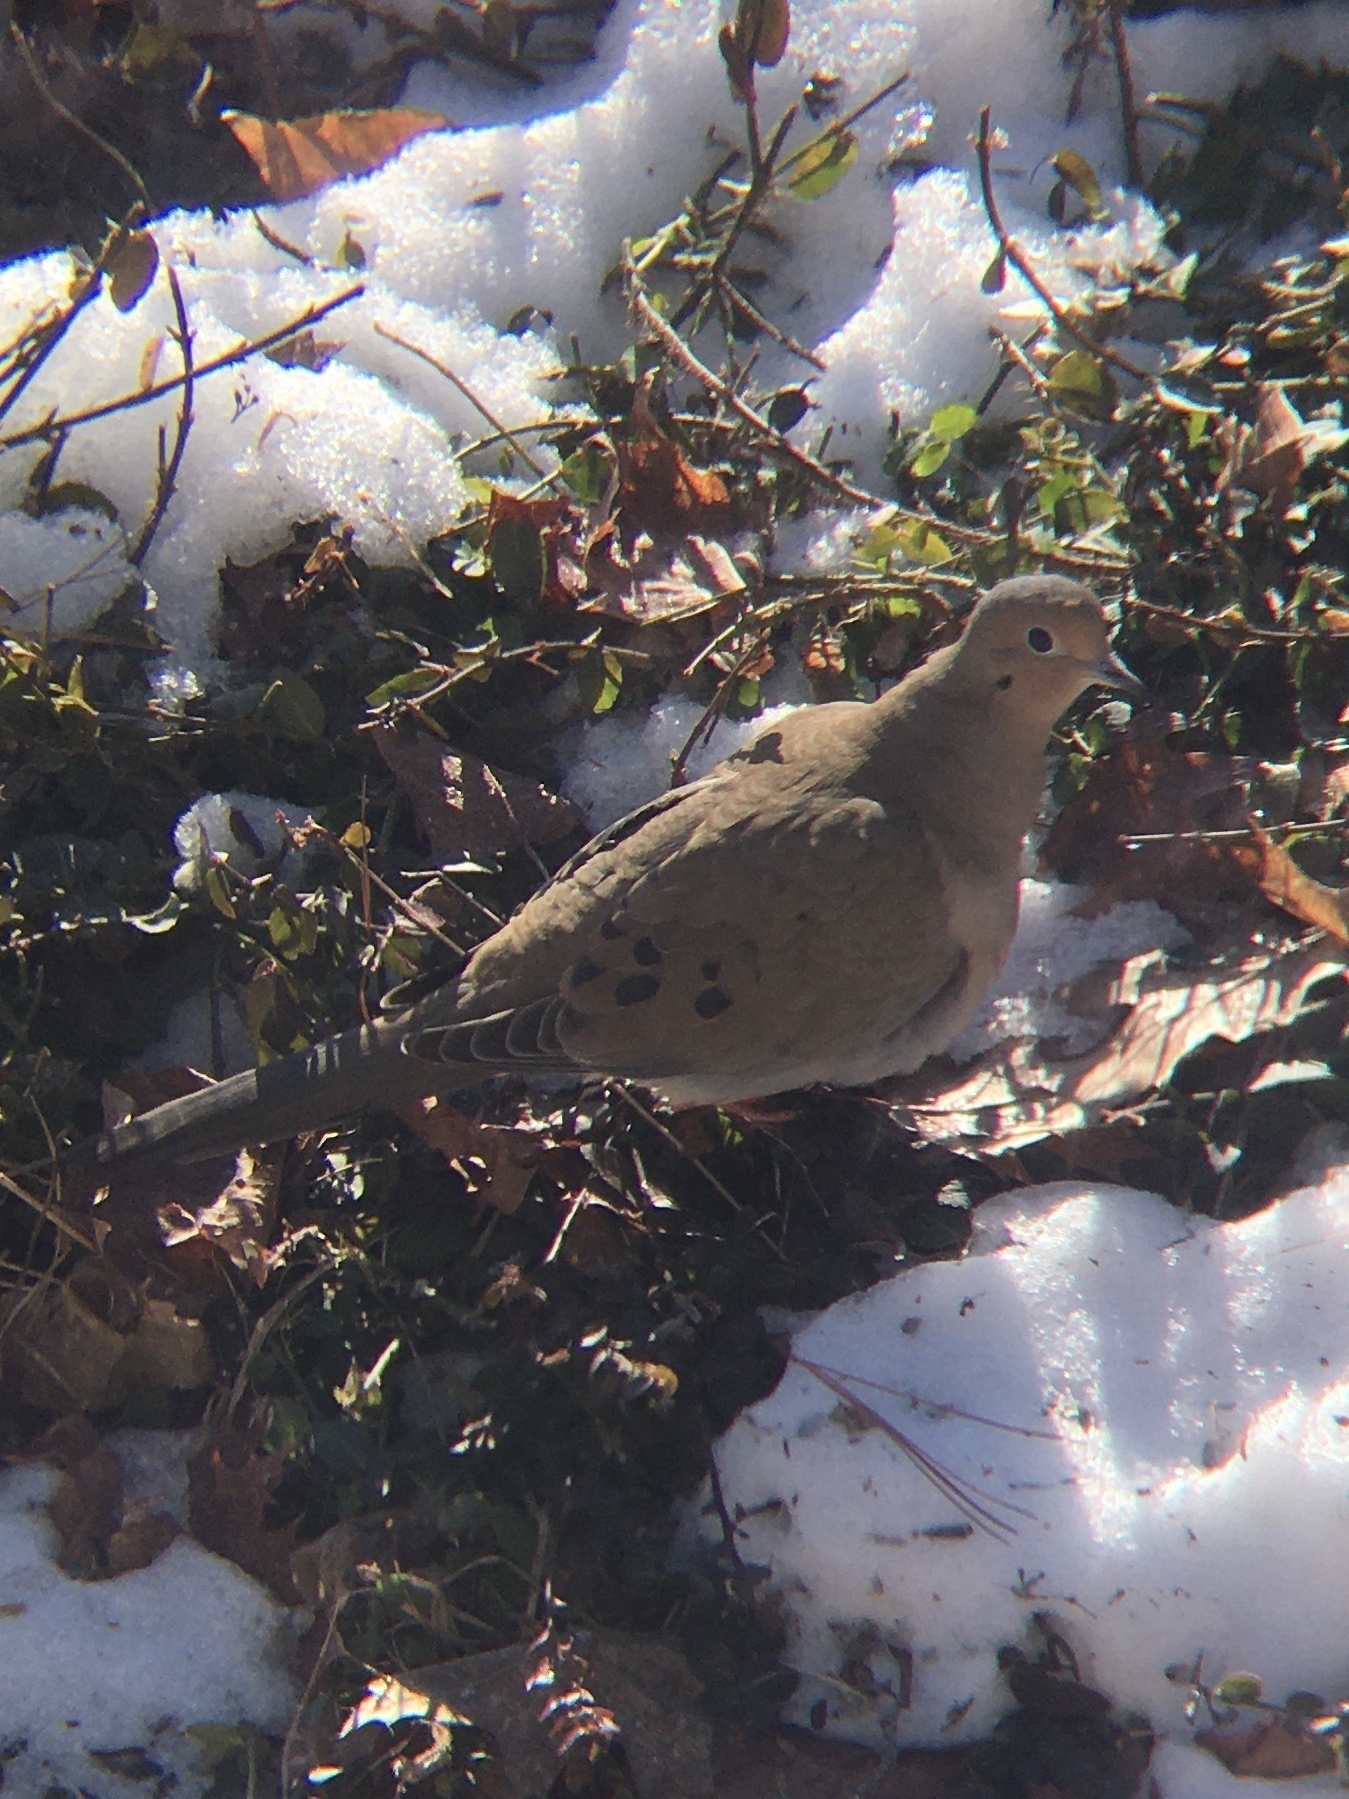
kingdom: Animalia
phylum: Chordata
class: Aves
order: Columbiformes
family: Columbidae
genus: Zenaida
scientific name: Zenaida macroura
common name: Mourning dove
